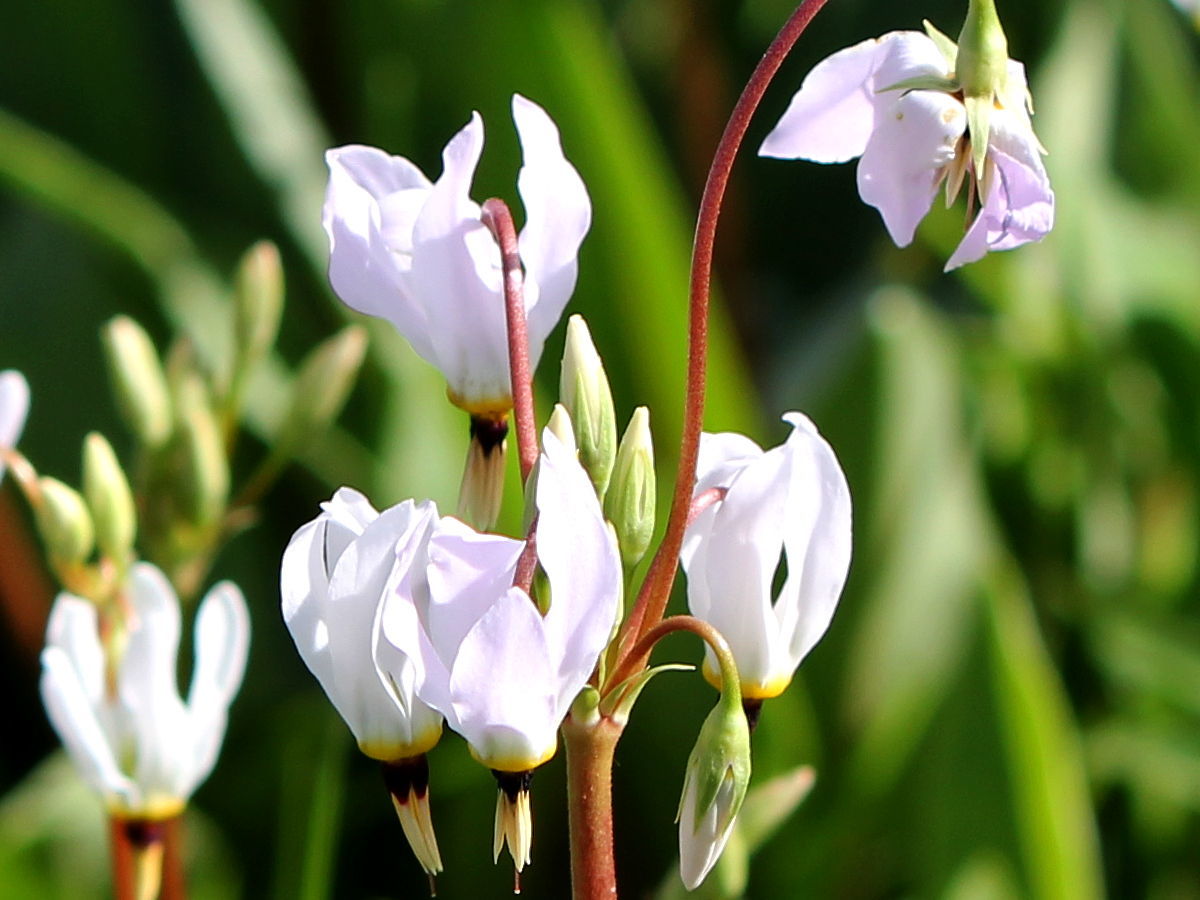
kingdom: Plantae
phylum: Tracheophyta
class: Magnoliopsida
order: Ericales
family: Primulaceae
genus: Dodecatheon
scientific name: Dodecatheon meadia
